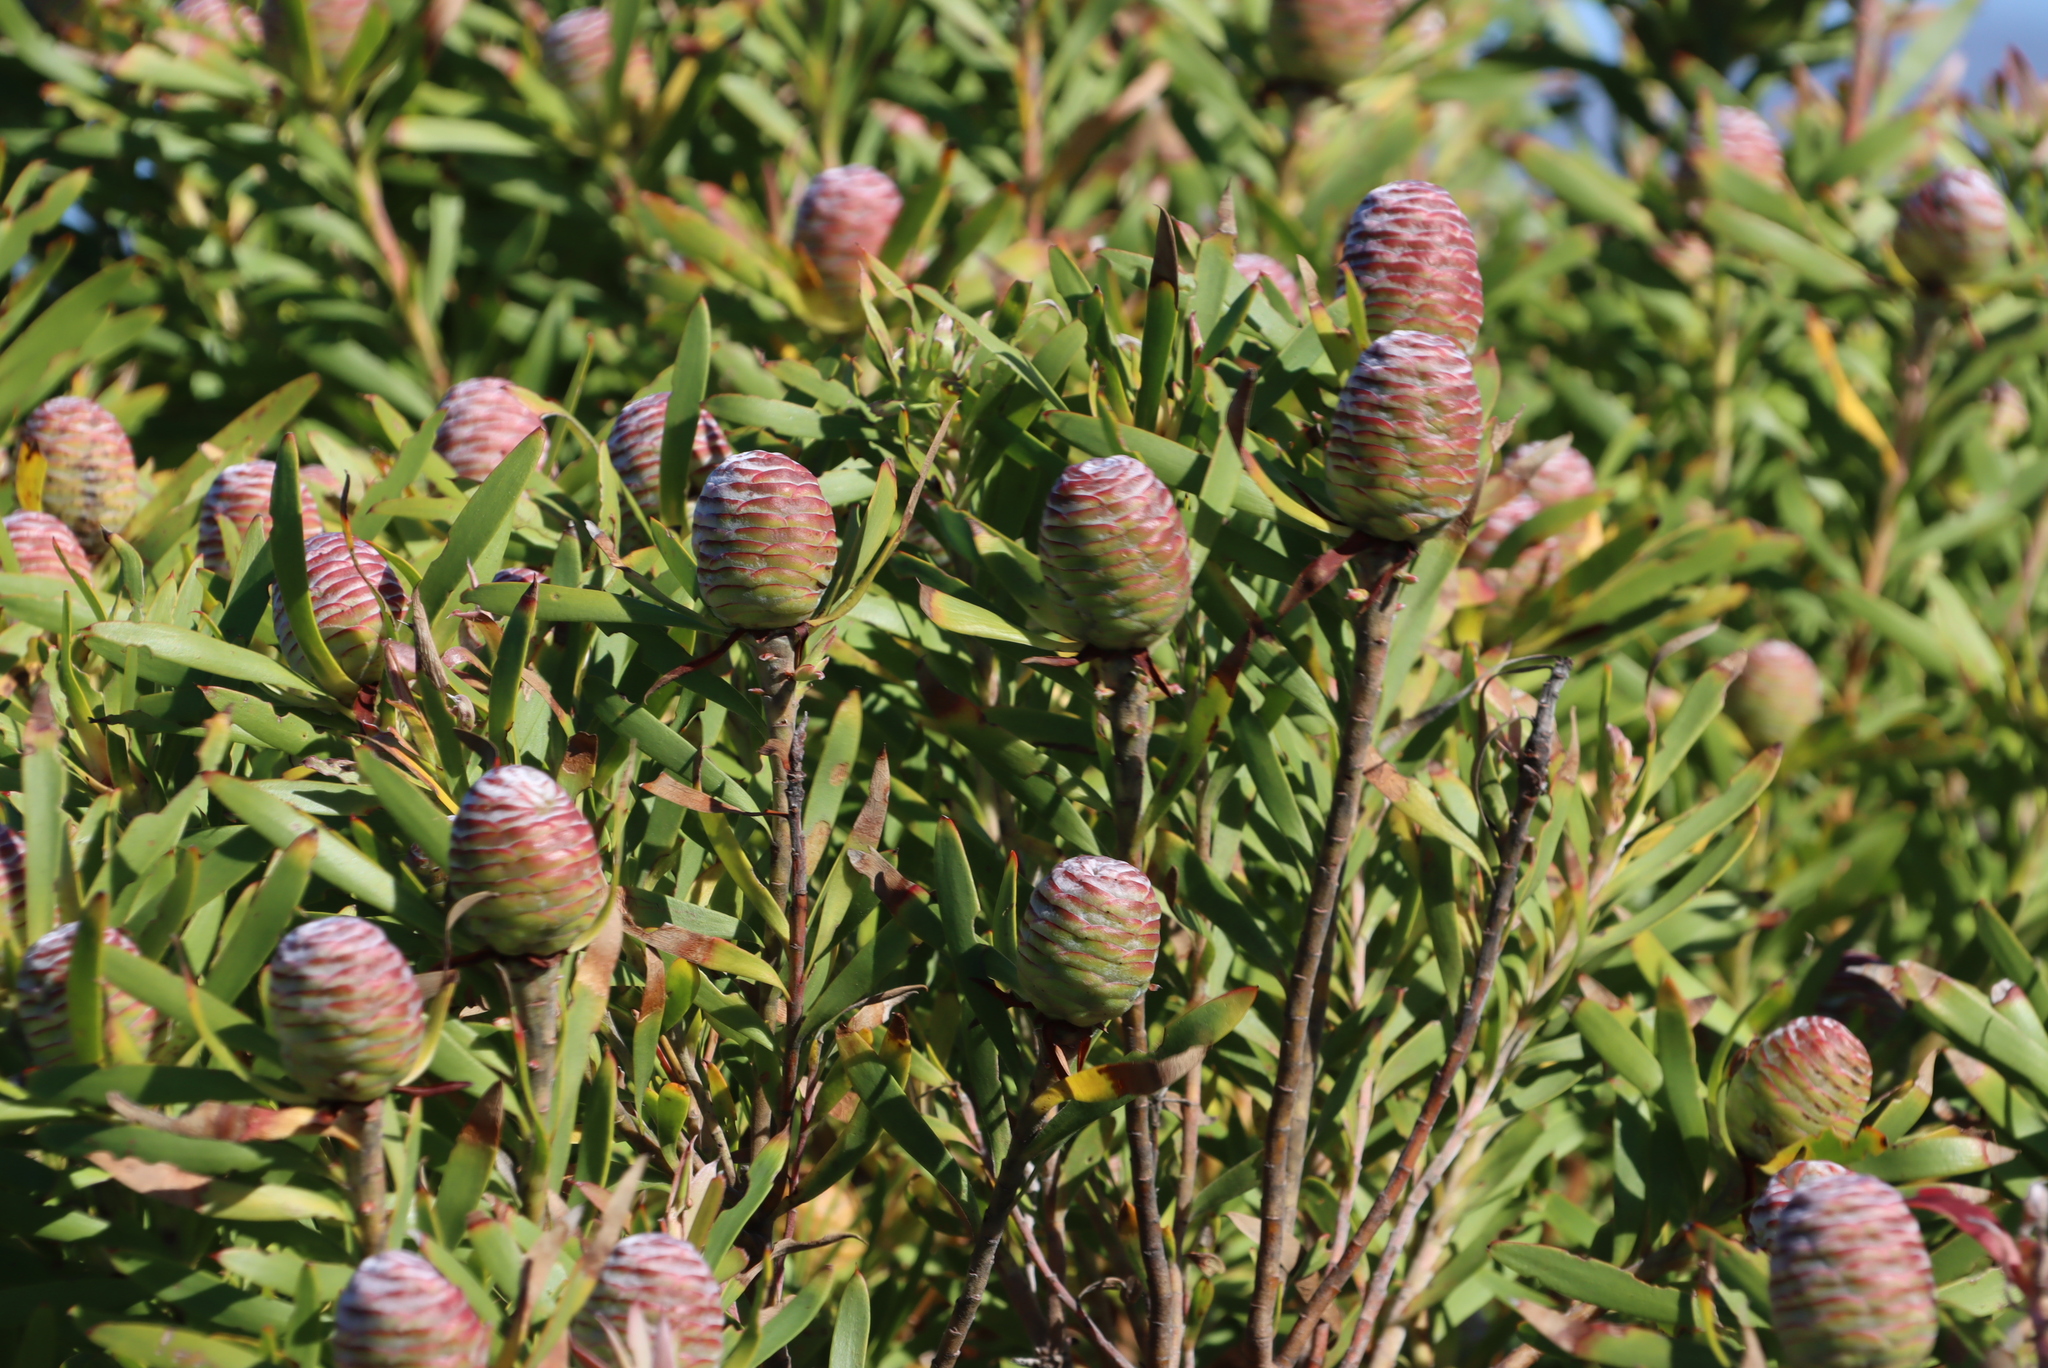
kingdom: Plantae
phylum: Tracheophyta
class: Magnoliopsida
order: Proteales
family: Proteaceae
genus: Leucadendron
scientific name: Leucadendron coniferum
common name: Dune conebush
